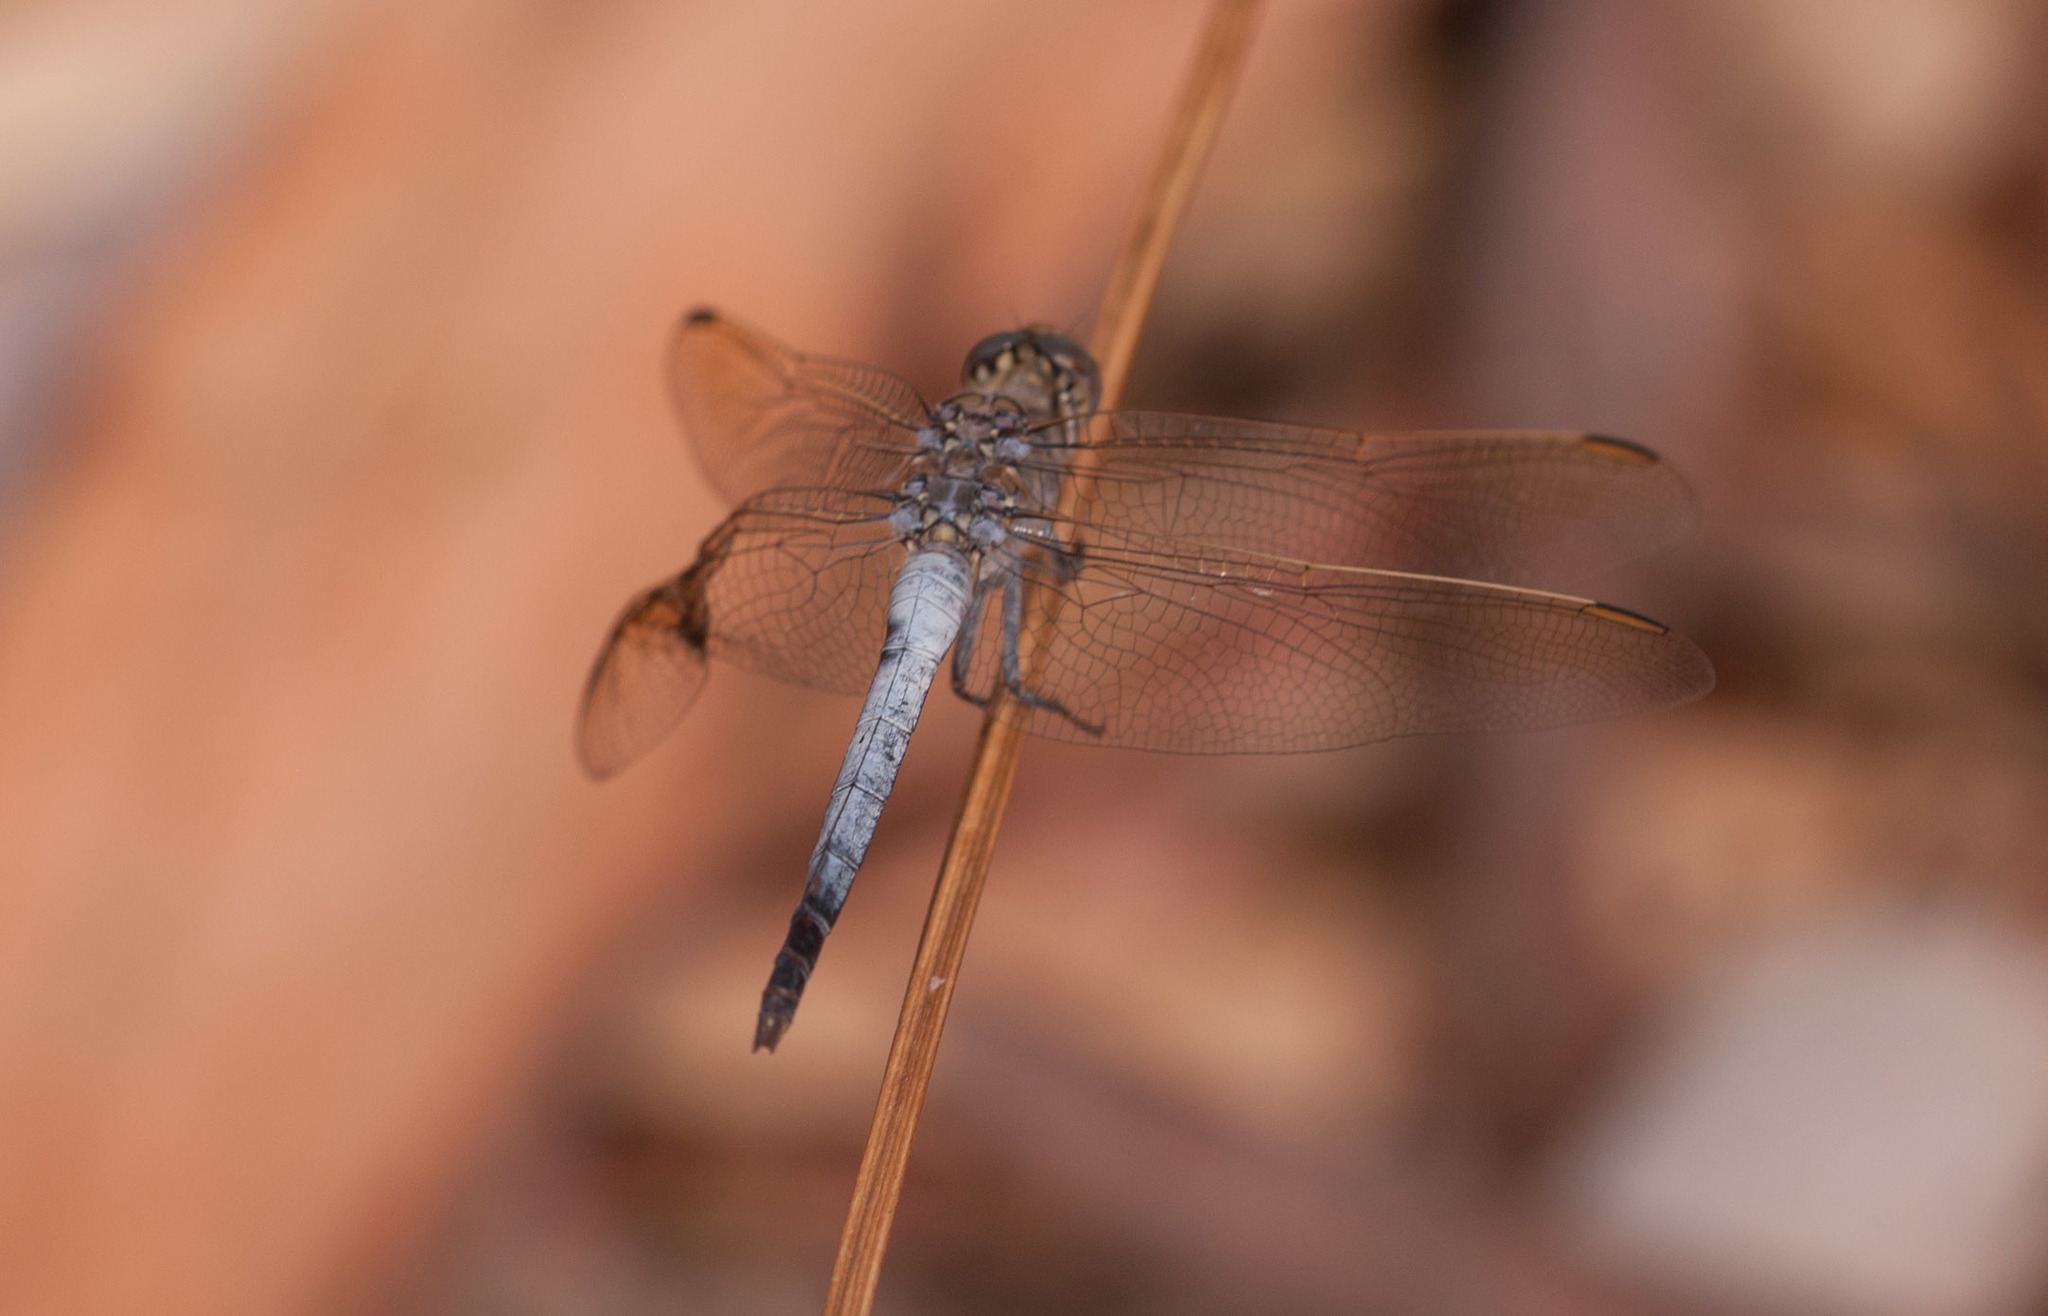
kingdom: Animalia
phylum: Arthropoda
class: Insecta
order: Odonata
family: Libellulidae
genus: Orthetrum
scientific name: Orthetrum caledonicum
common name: Blue skimmer
